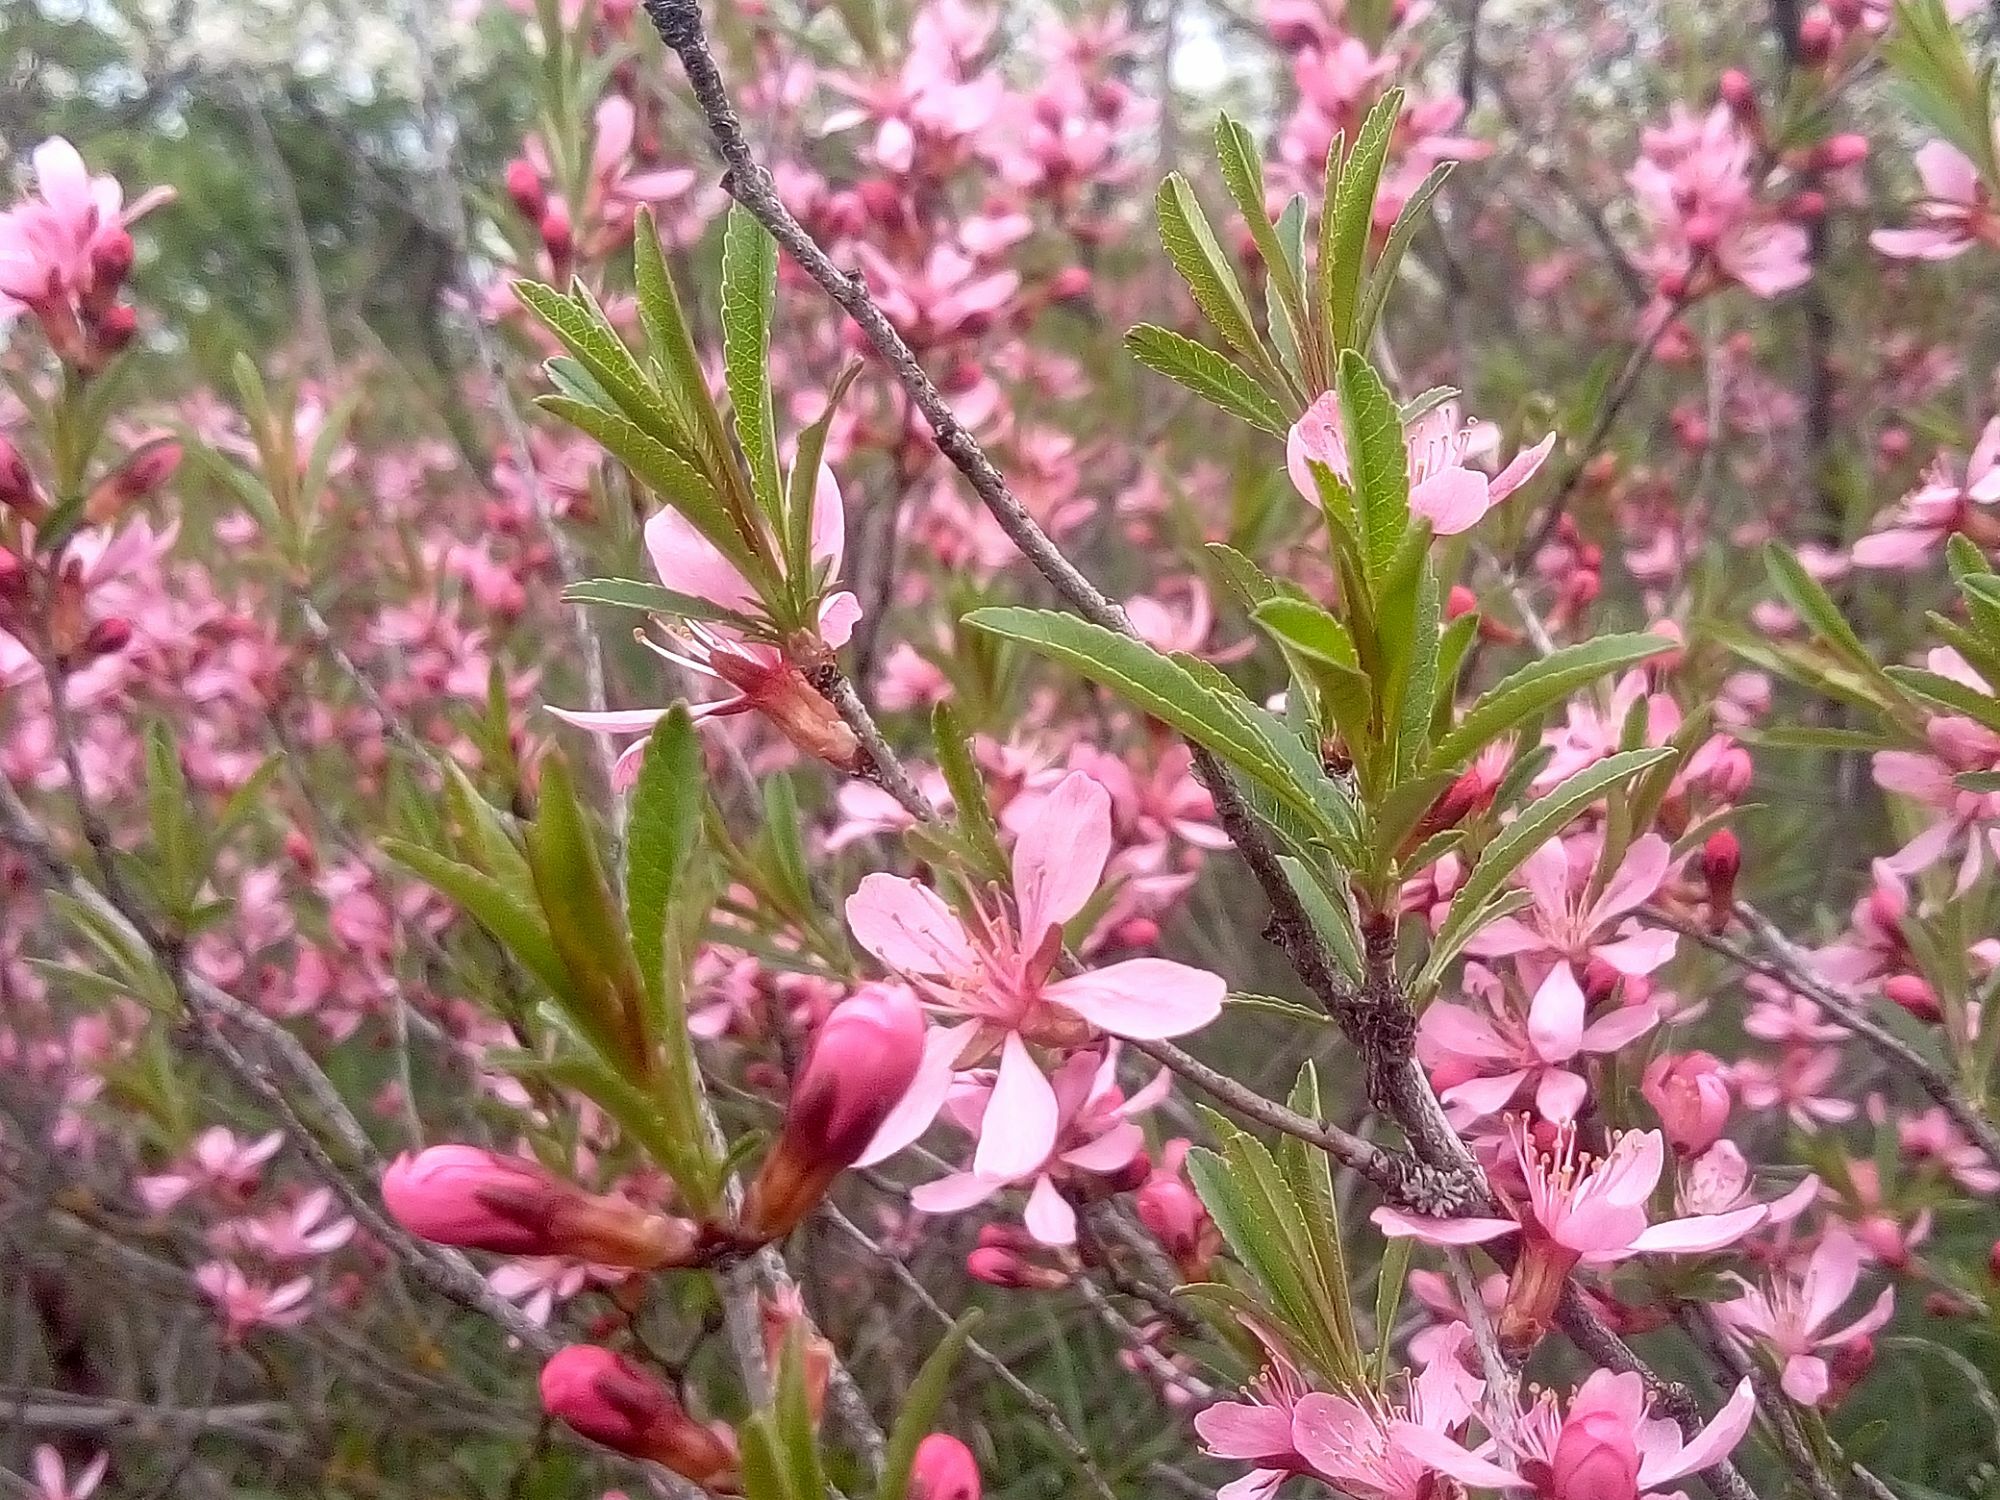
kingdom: Plantae
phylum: Tracheophyta
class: Magnoliopsida
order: Rosales
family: Rosaceae
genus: Prunus
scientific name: Prunus tenella
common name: Dwarf russian almond
